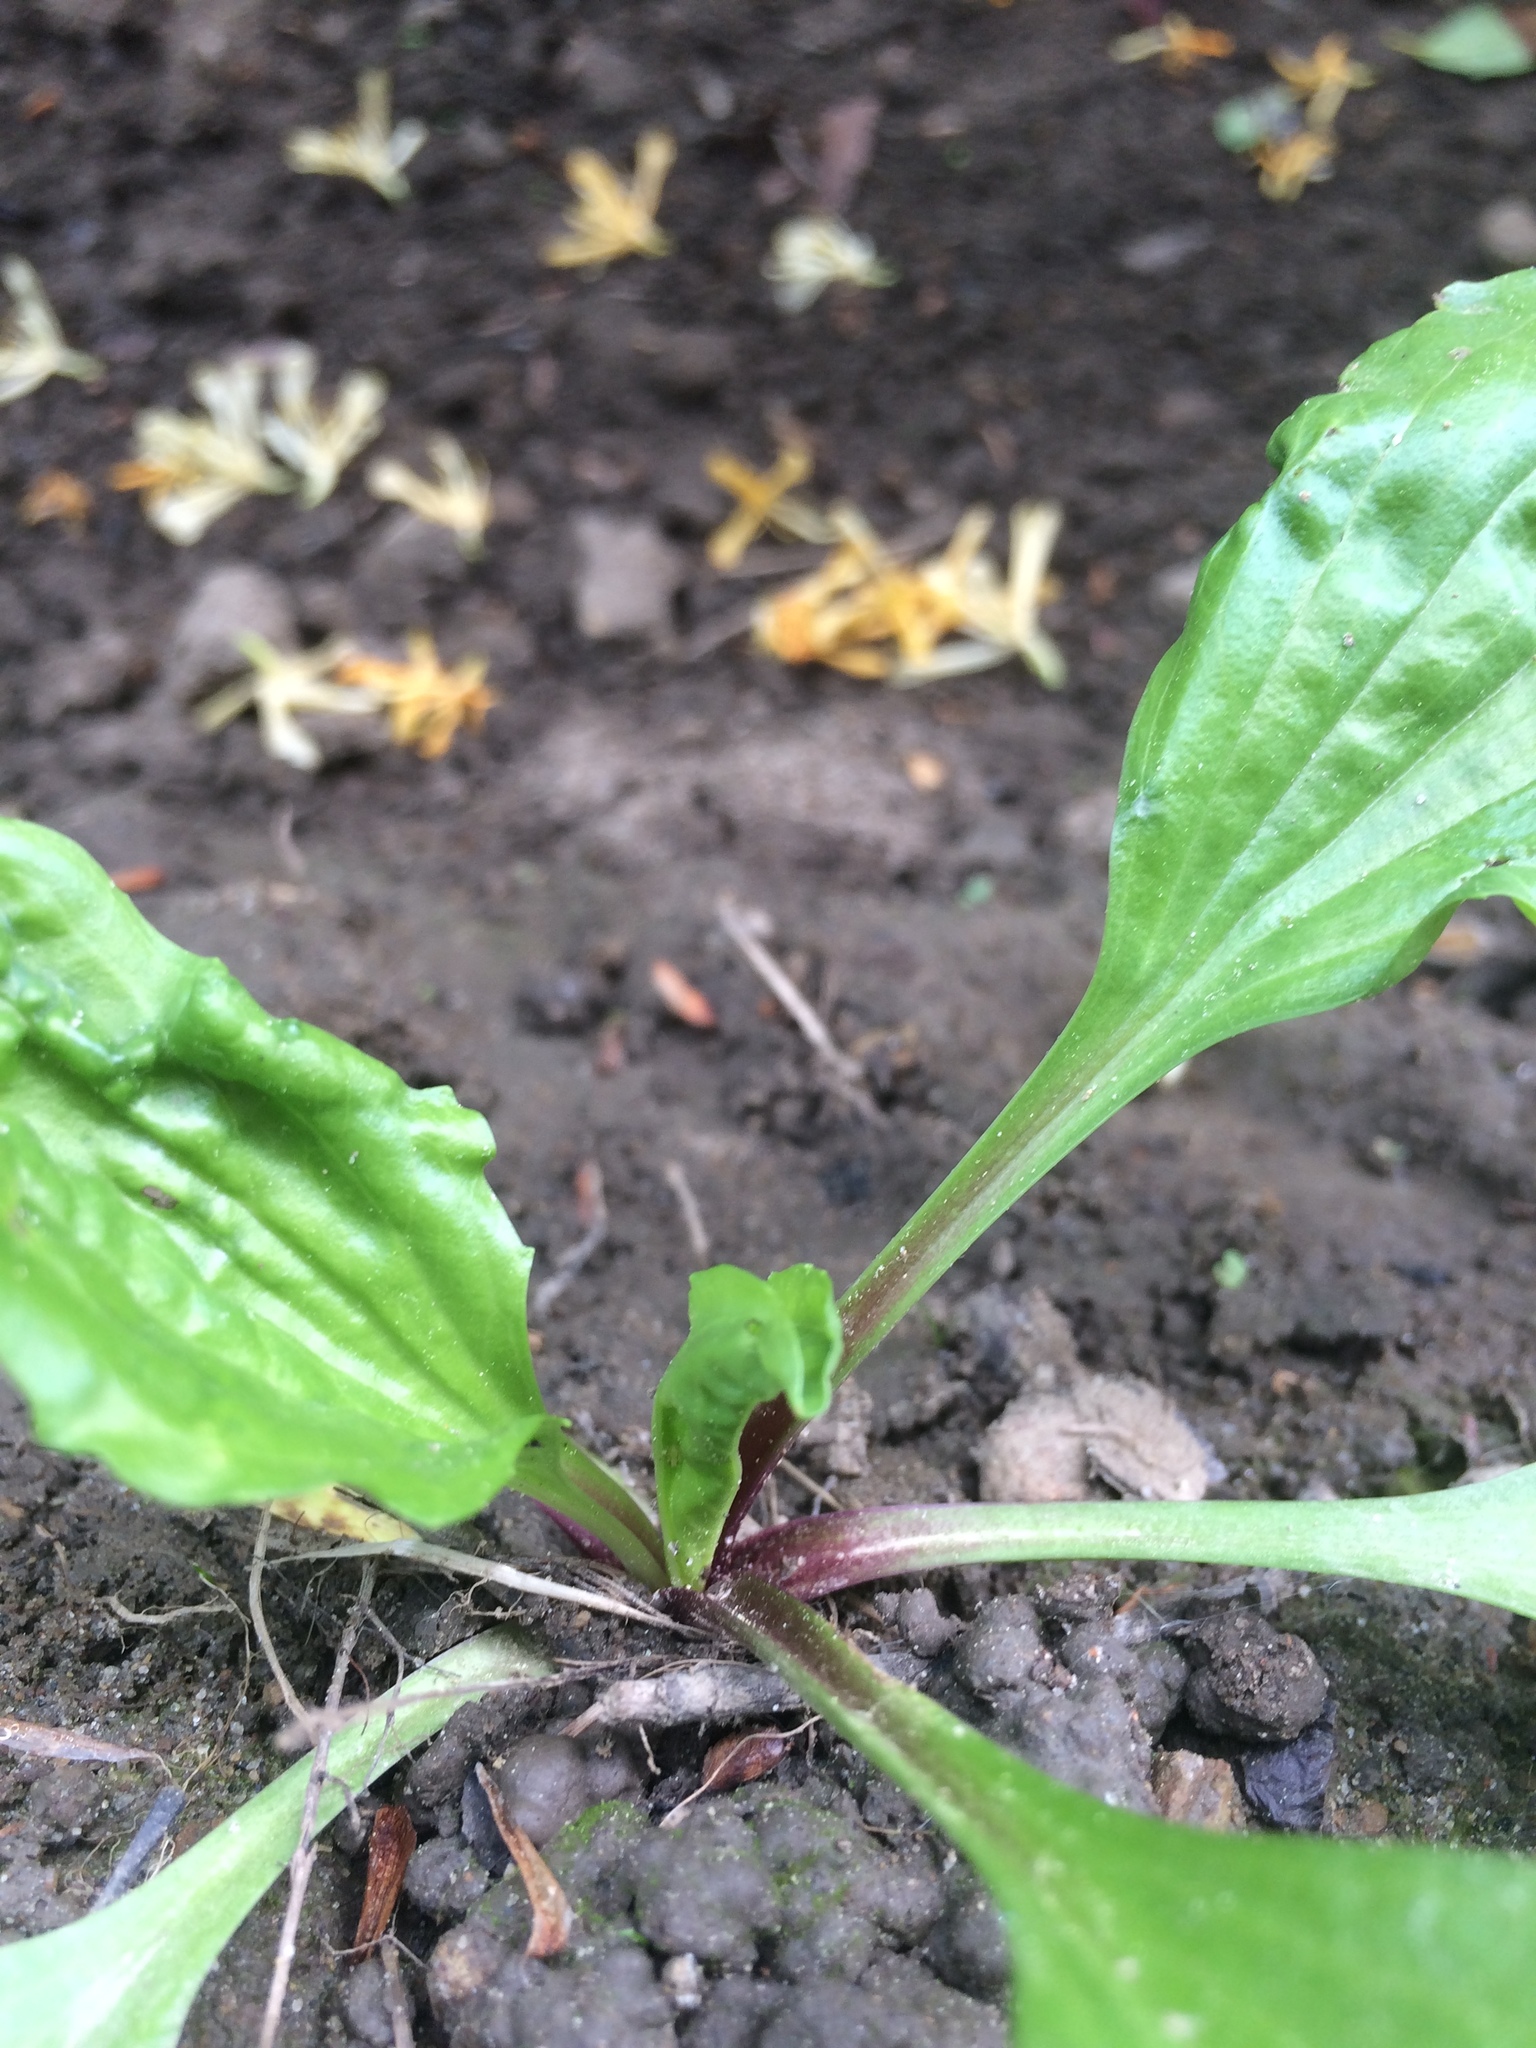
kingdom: Plantae
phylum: Tracheophyta
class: Magnoliopsida
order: Lamiales
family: Plantaginaceae
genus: Plantago
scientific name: Plantago rugelii
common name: American plantain
